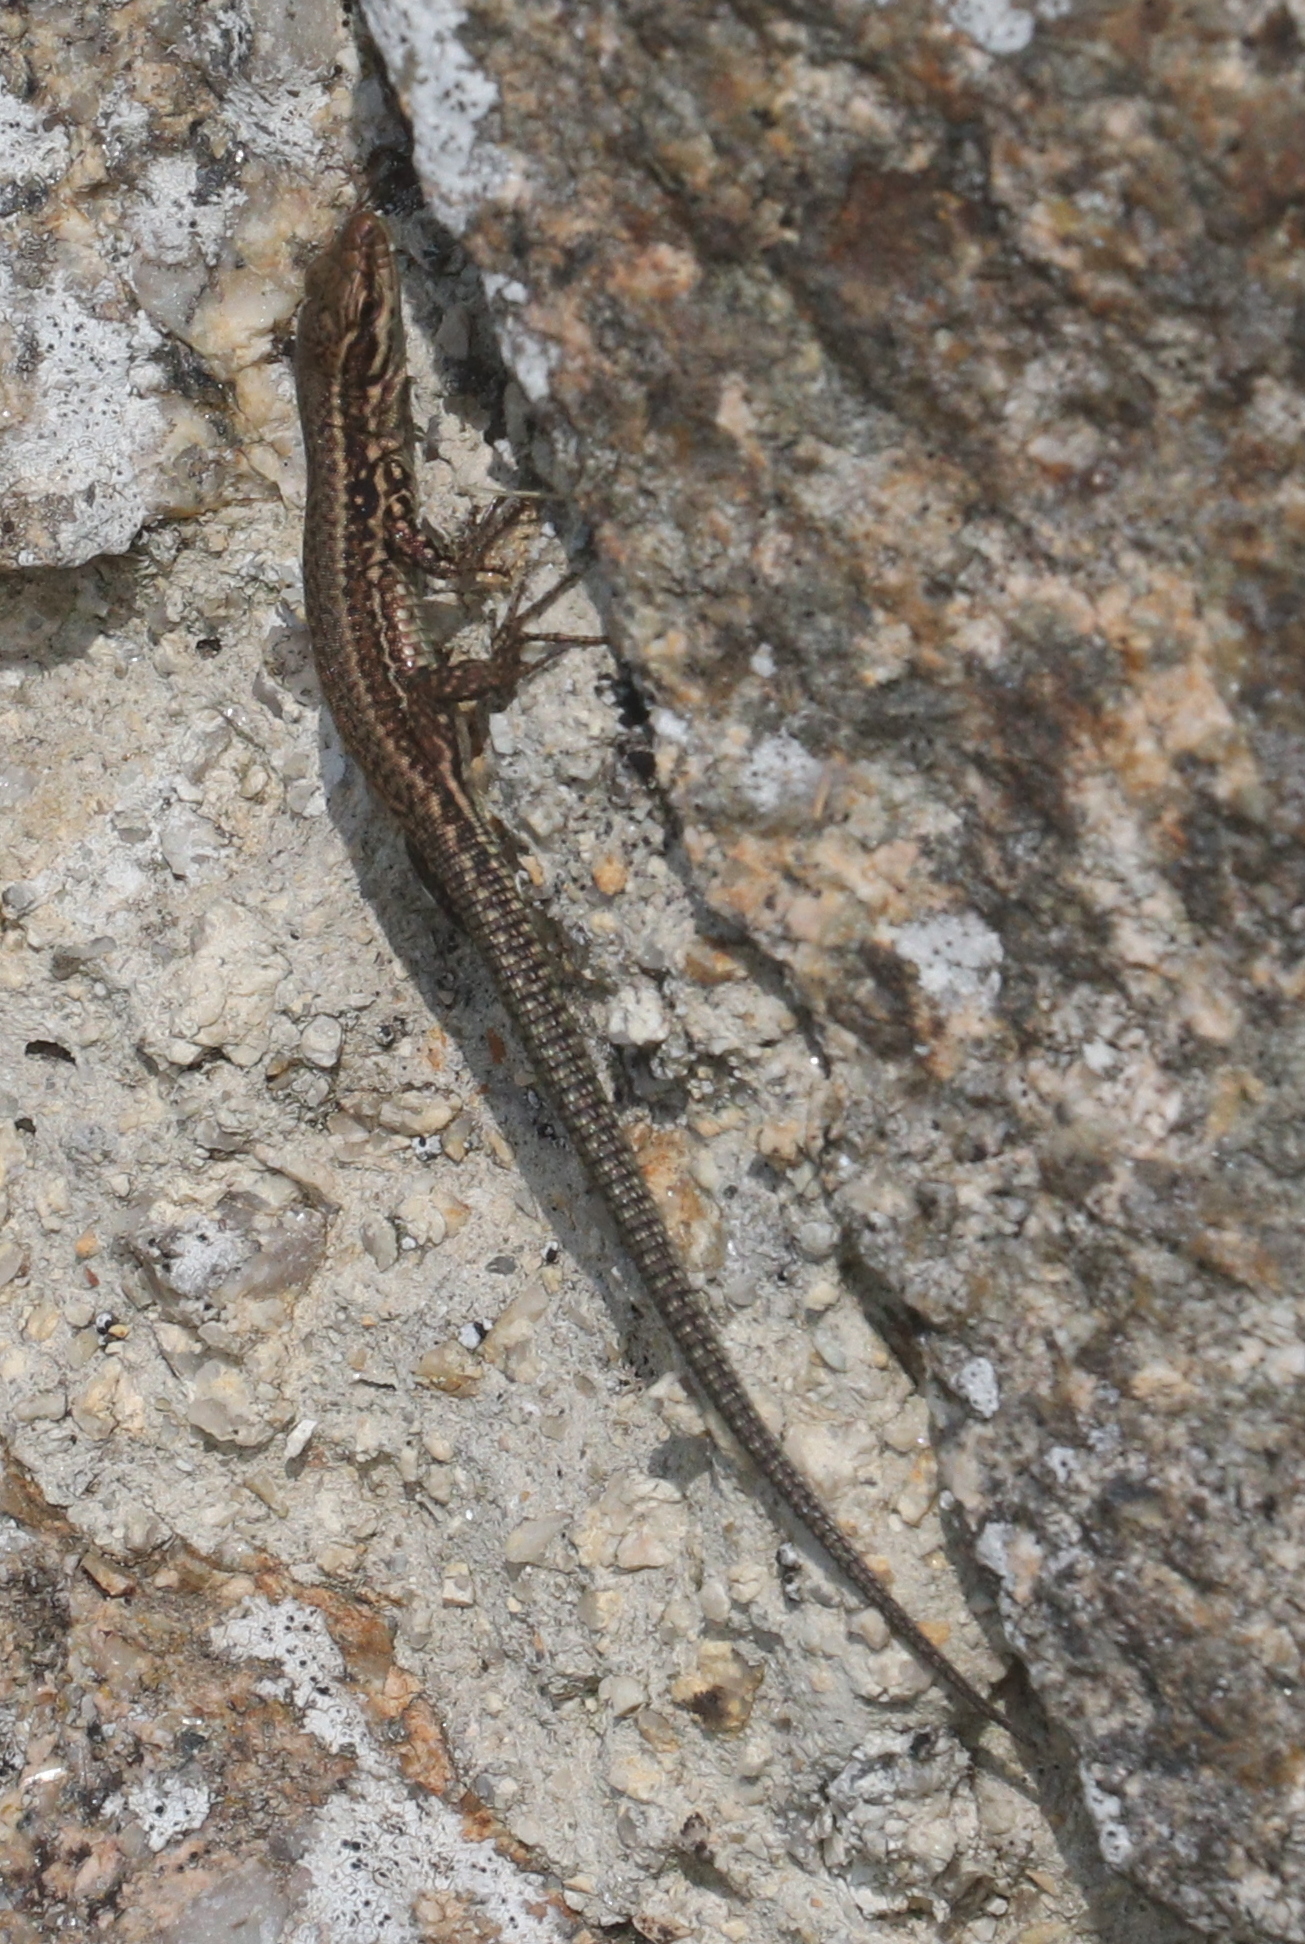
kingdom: Animalia
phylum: Chordata
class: Squamata
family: Lacertidae
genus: Podarcis
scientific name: Podarcis muralis
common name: Common wall lizard
